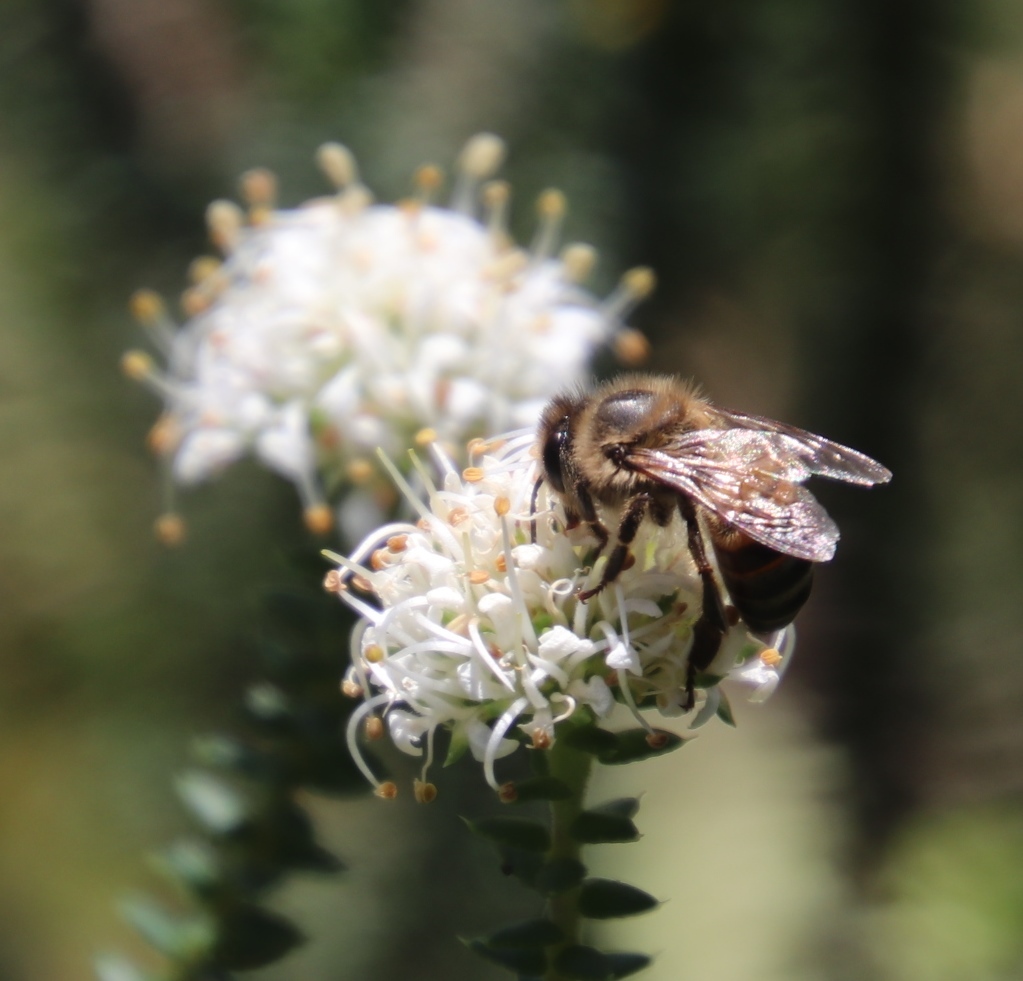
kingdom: Animalia
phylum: Arthropoda
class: Insecta
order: Hymenoptera
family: Apidae
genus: Apis
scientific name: Apis mellifera
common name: Honey bee
